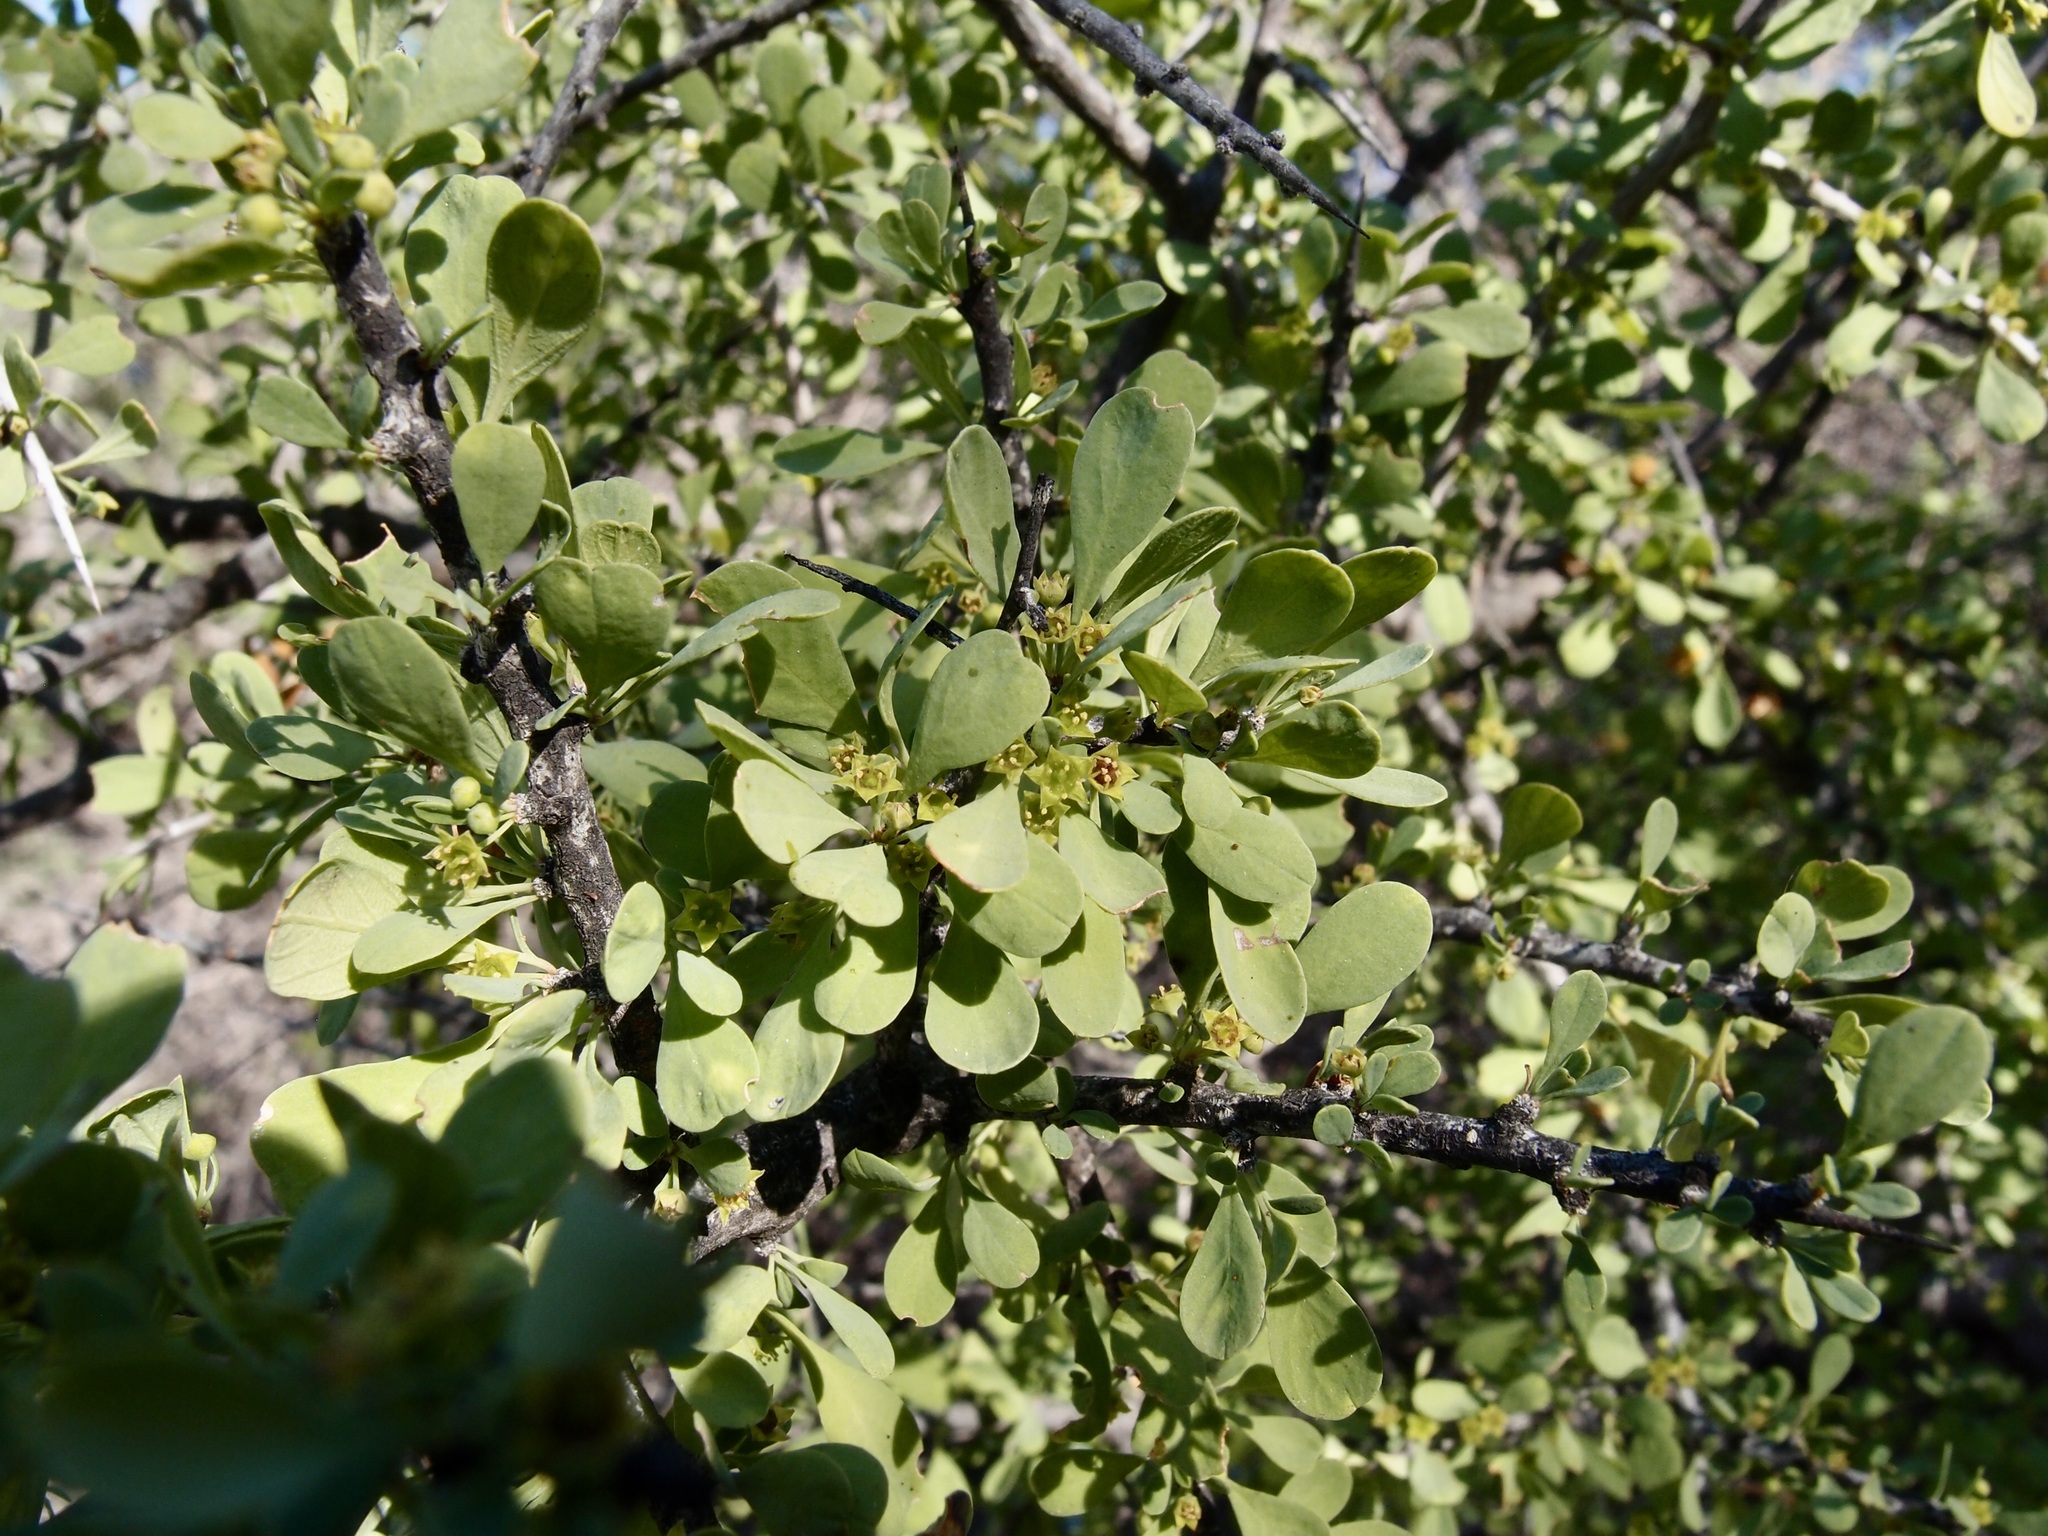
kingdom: Plantae
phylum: Tracheophyta
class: Magnoliopsida
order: Rosales
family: Rhamnaceae
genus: Condalia
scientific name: Condalia globosa
